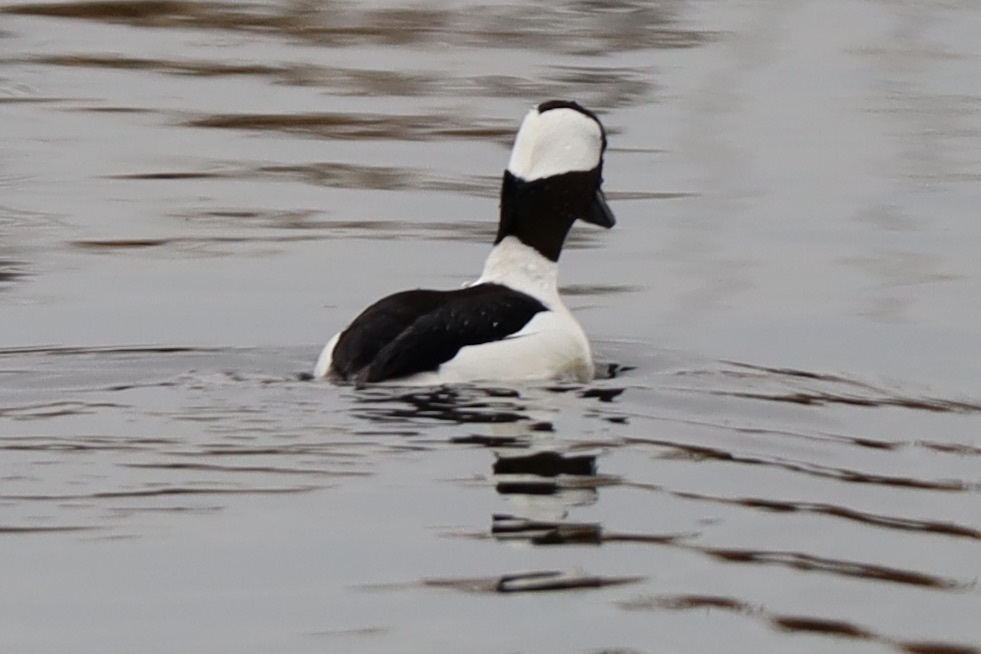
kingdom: Animalia
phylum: Chordata
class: Aves
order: Anseriformes
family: Anatidae
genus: Bucephala
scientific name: Bucephala albeola
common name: Bufflehead
